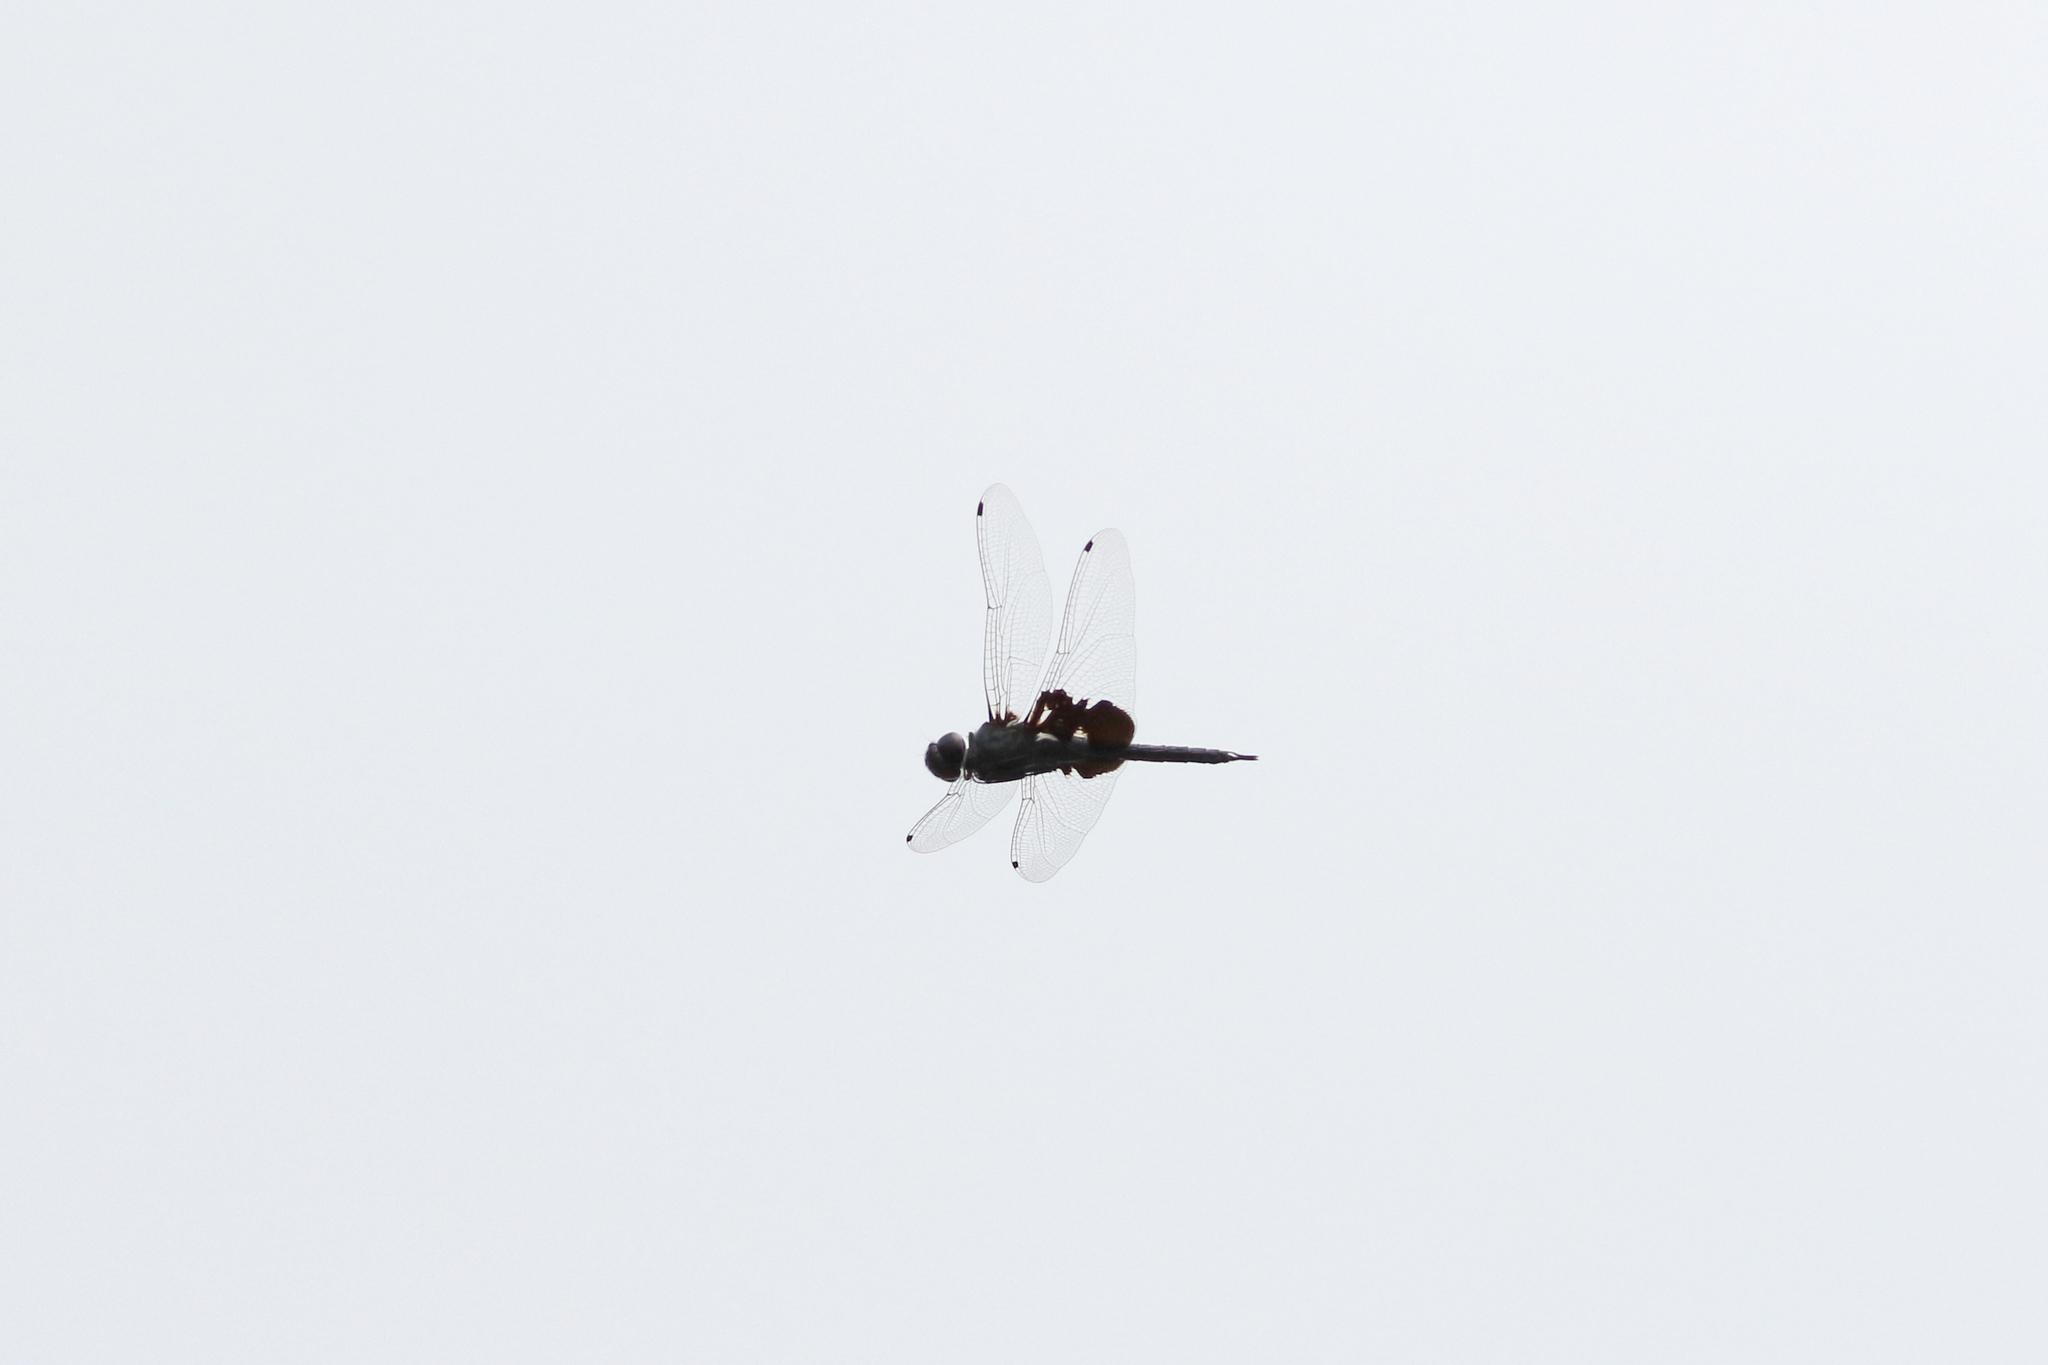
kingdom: Animalia
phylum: Arthropoda
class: Insecta
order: Odonata
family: Libellulidae
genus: Tramea
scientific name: Tramea lacerata
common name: Black saddlebags
